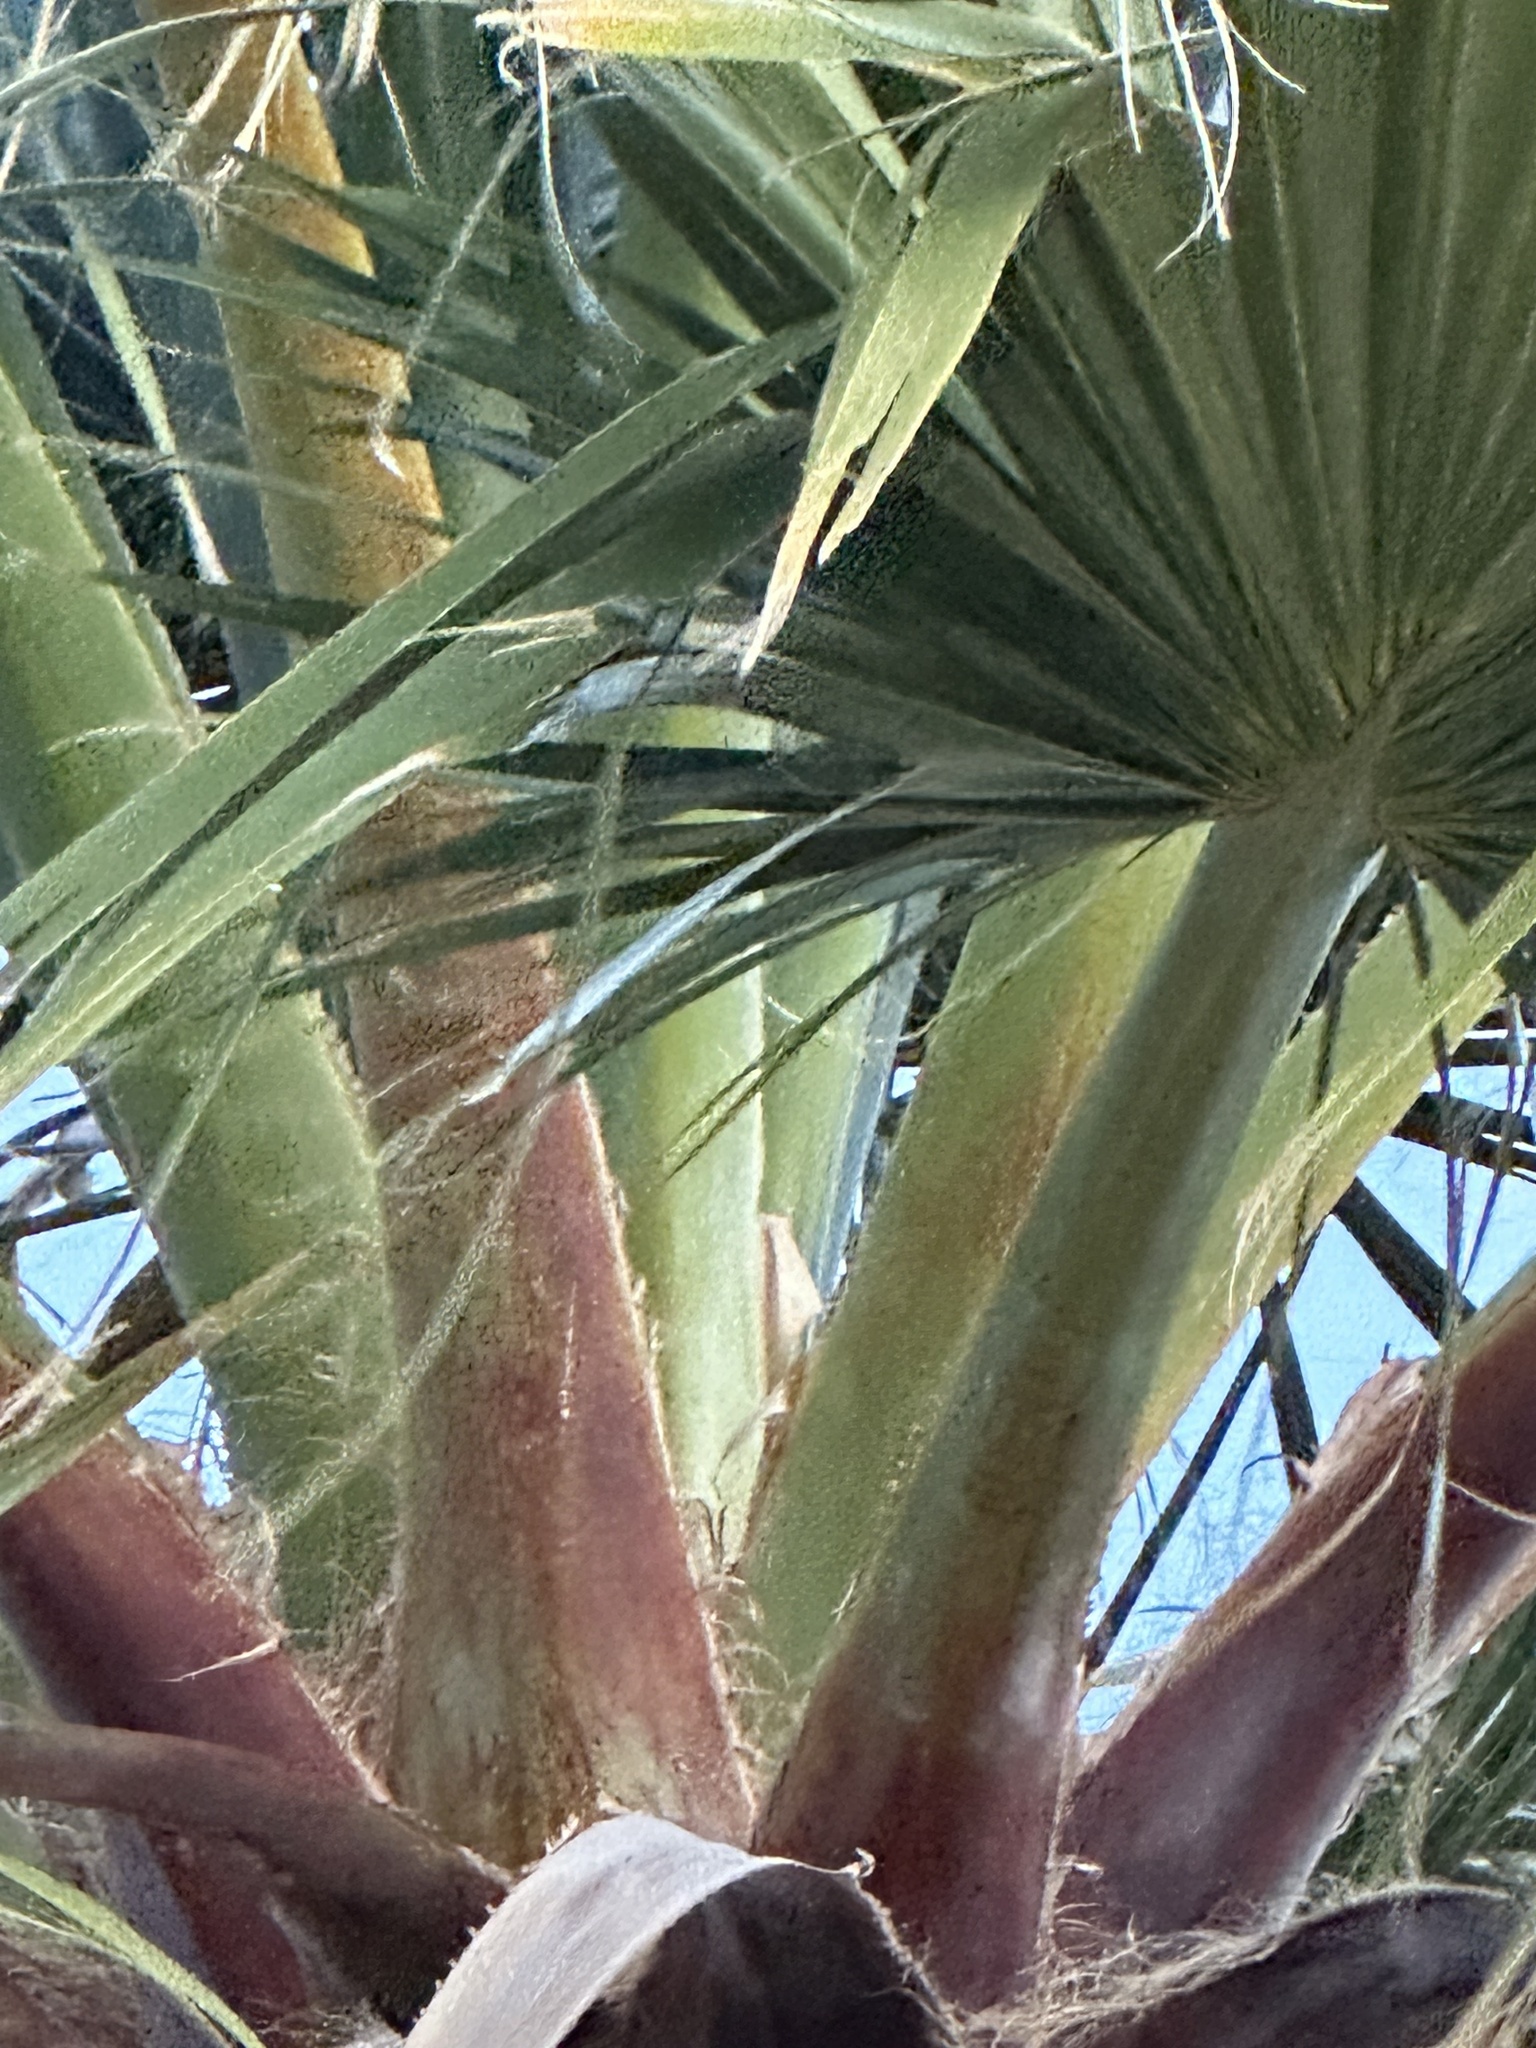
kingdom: Plantae
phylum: Tracheophyta
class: Liliopsida
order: Arecales
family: Arecaceae
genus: Washingtonia
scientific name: Washingtonia filifera
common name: California fan palm
